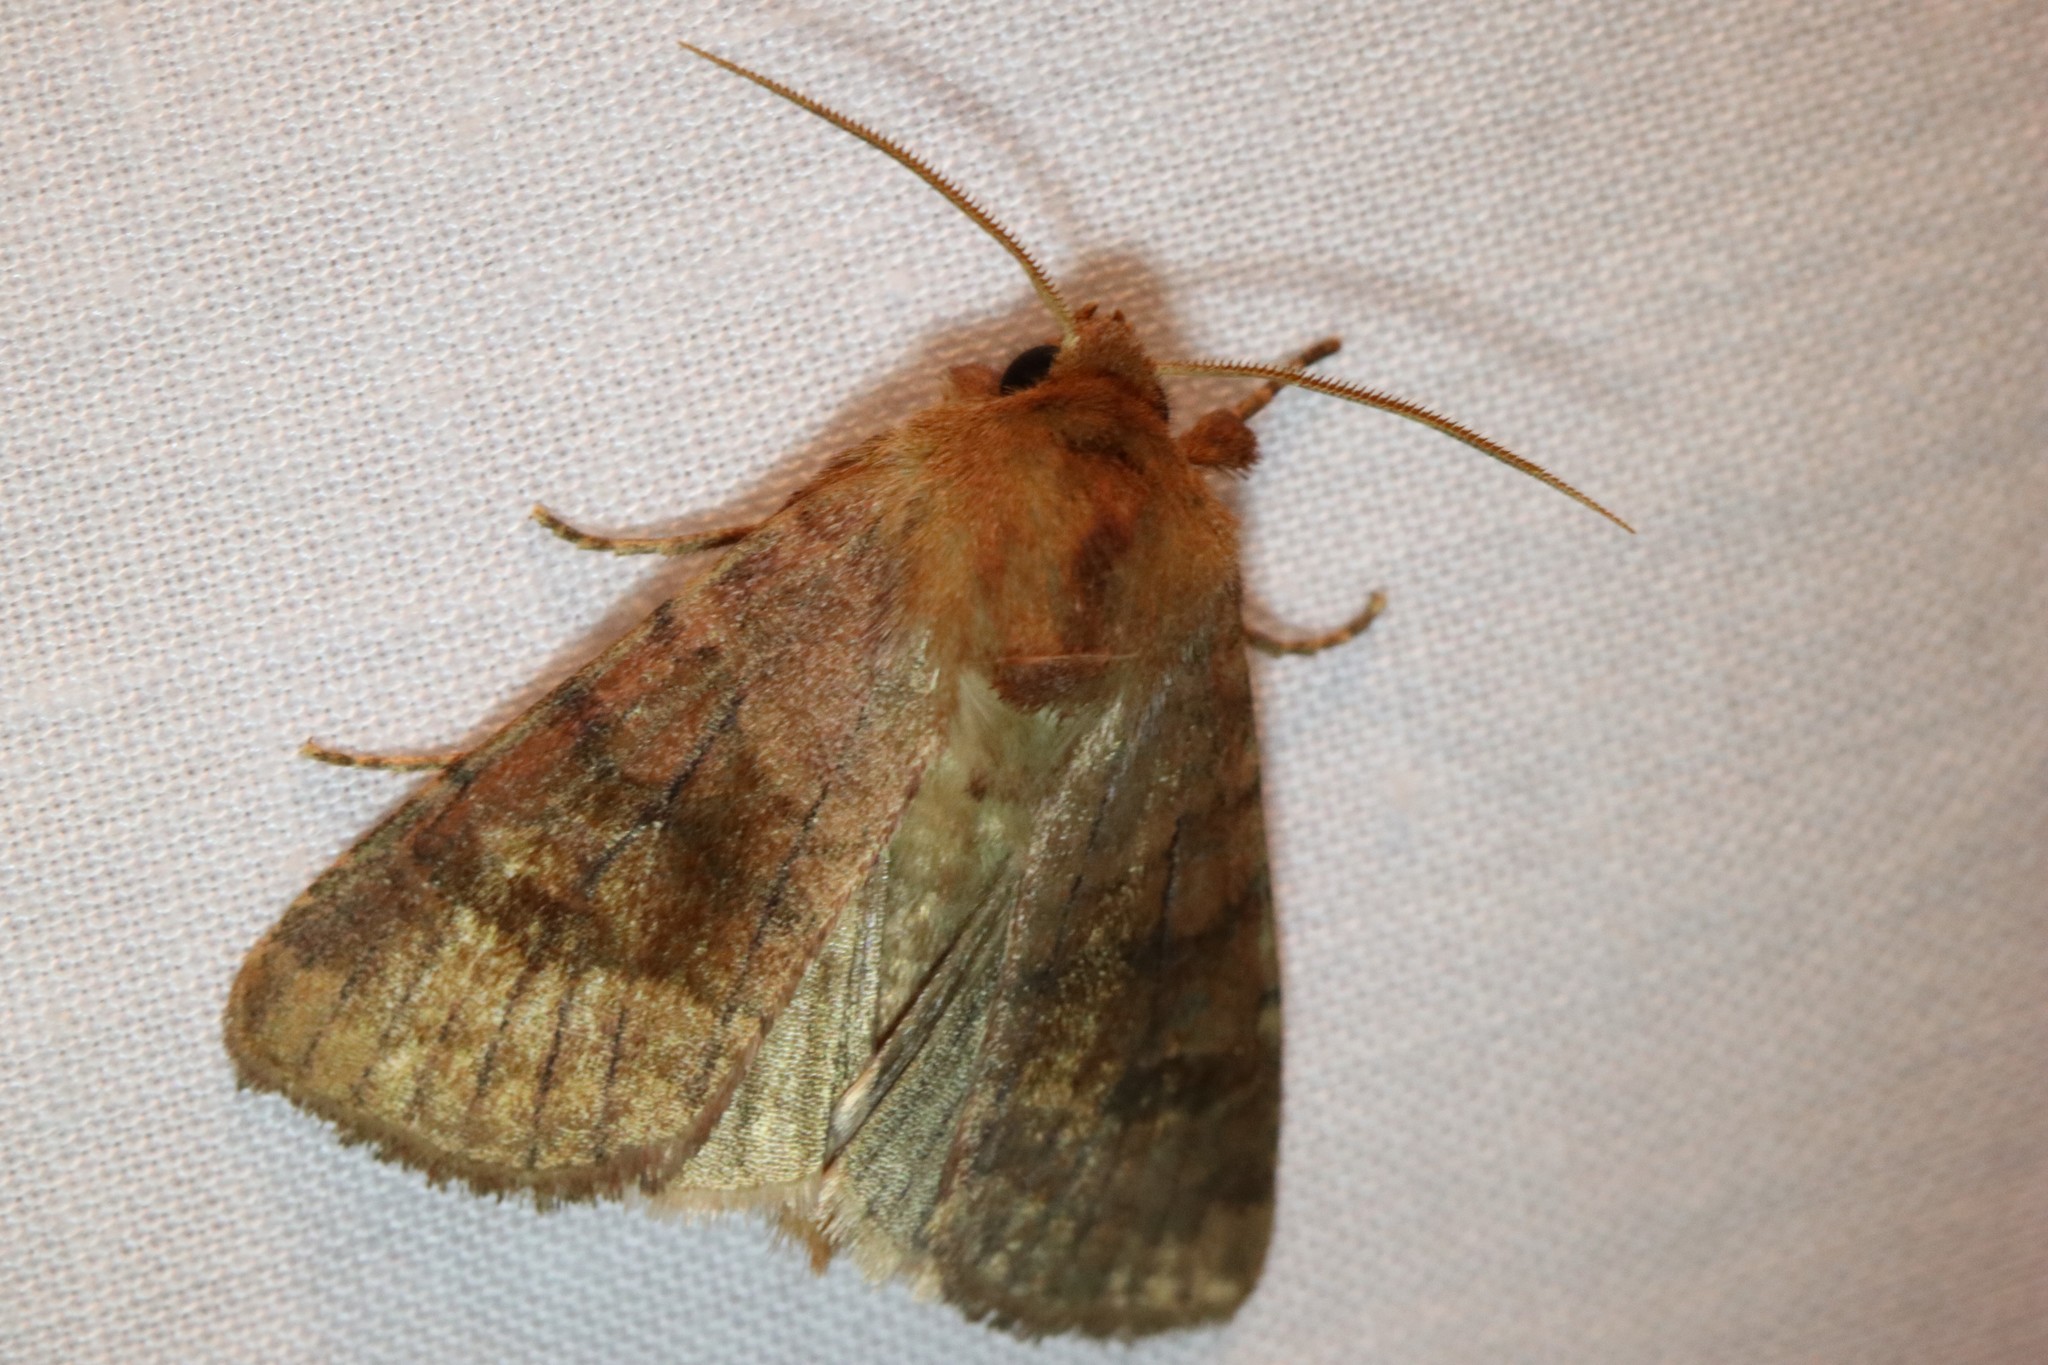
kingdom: Animalia
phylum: Arthropoda
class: Insecta
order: Lepidoptera
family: Noctuidae
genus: Nephelodes
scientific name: Nephelodes minians
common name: Bronzed cutworm
